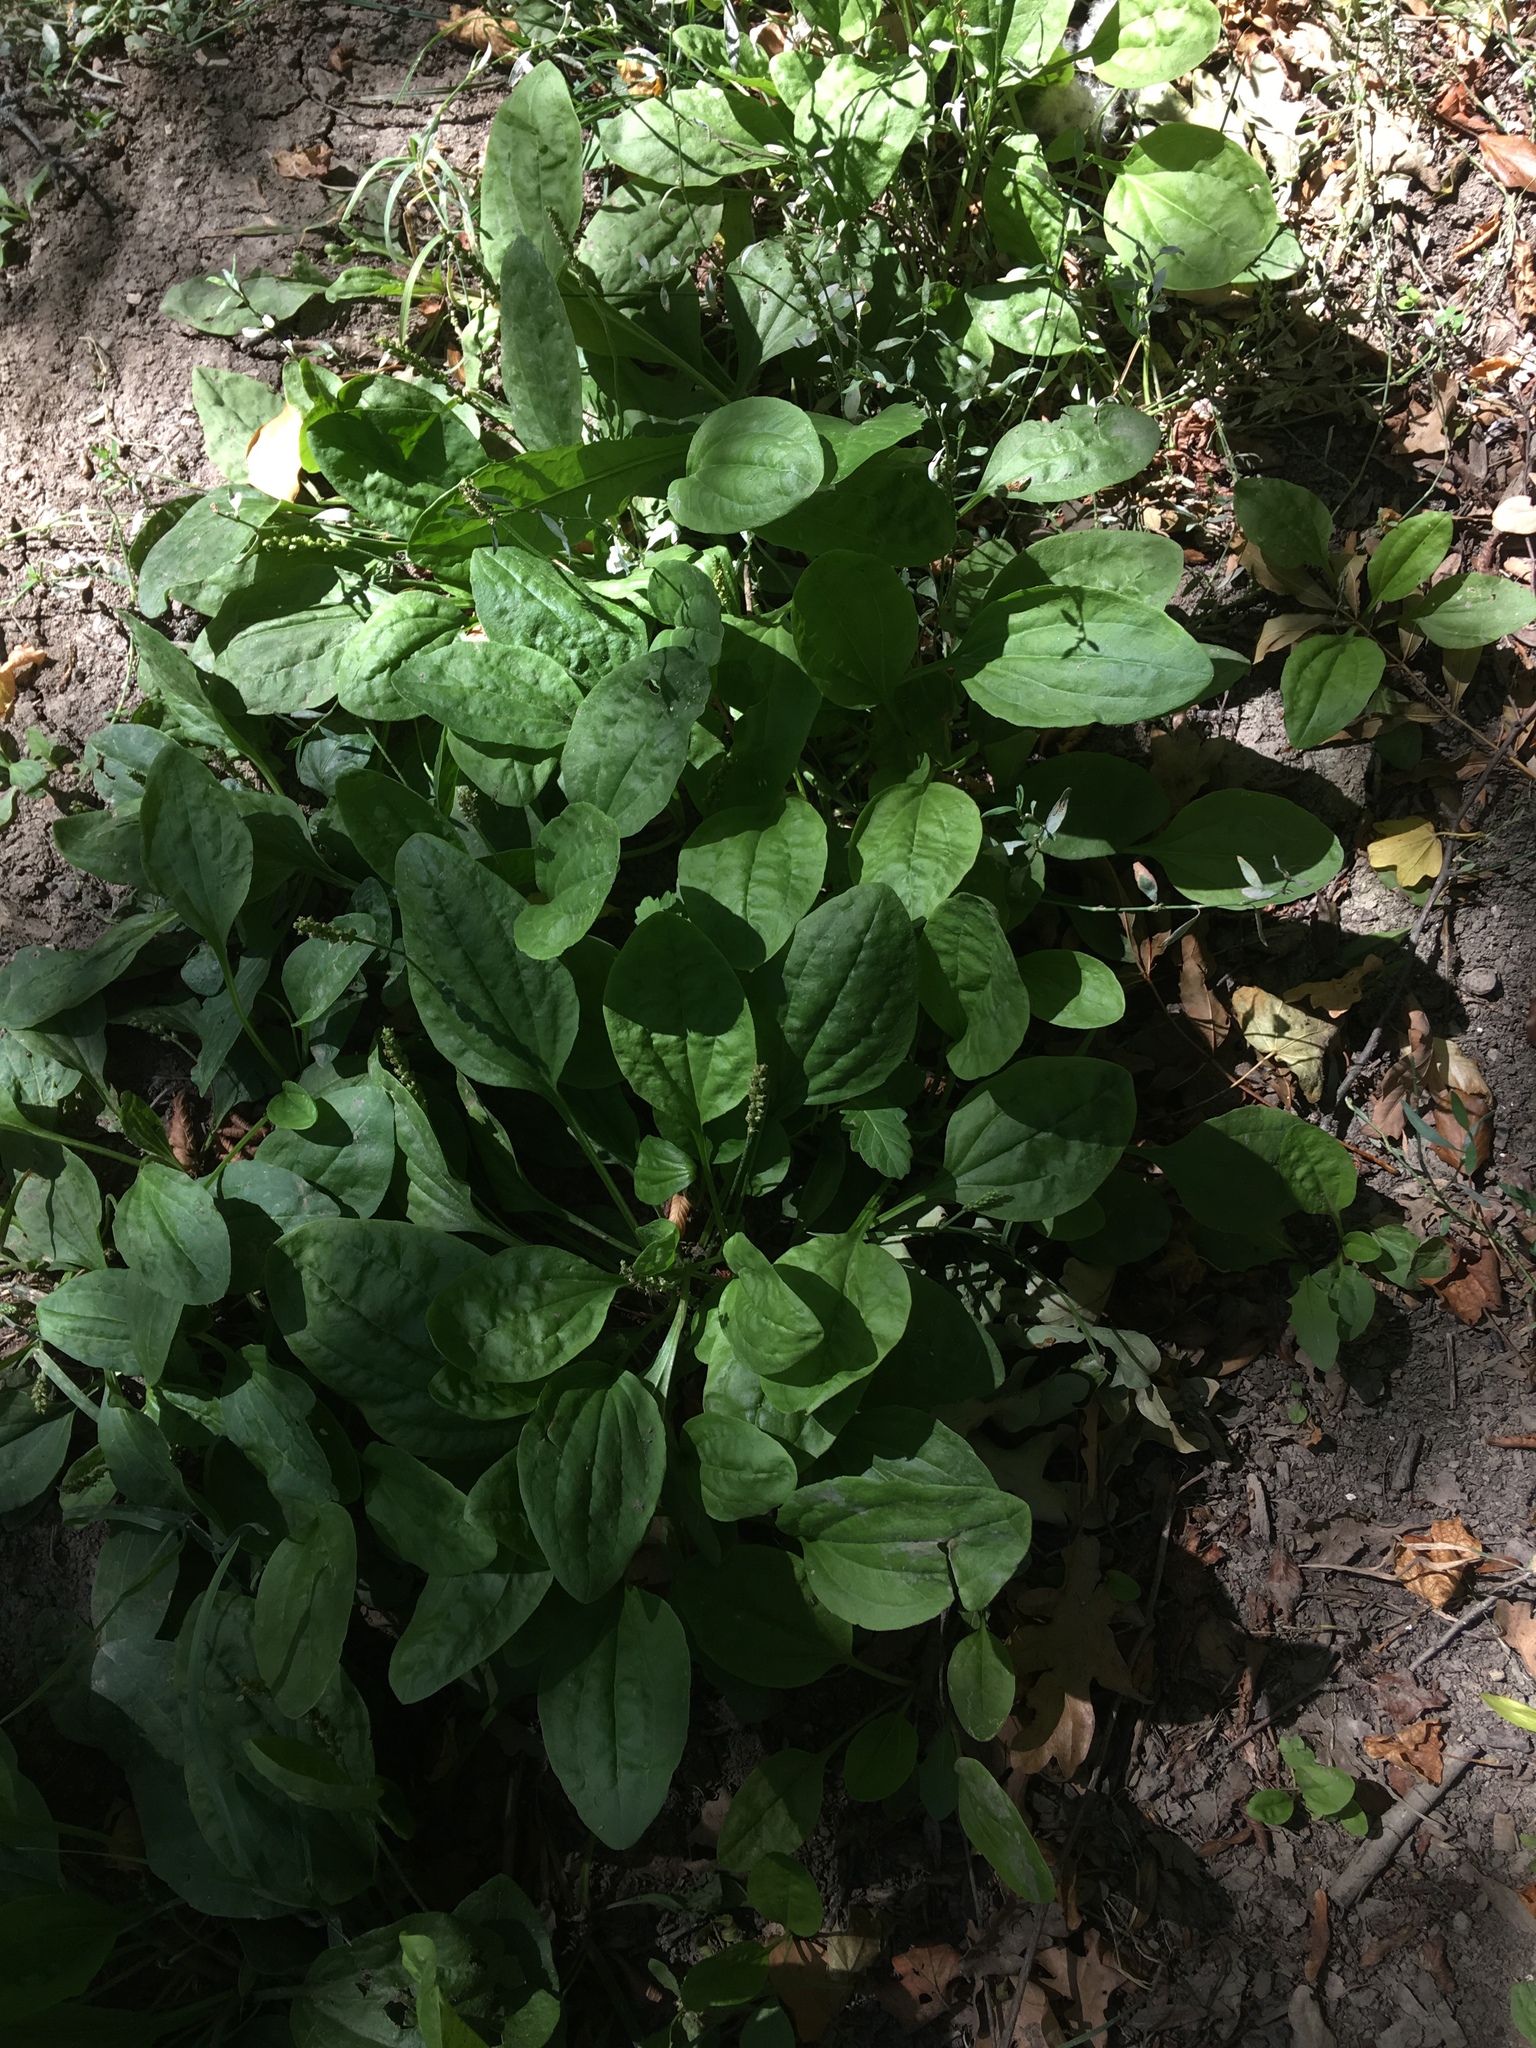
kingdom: Plantae
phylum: Tracheophyta
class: Magnoliopsida
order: Lamiales
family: Plantaginaceae
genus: Plantago
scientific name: Plantago major
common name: Common plantain
